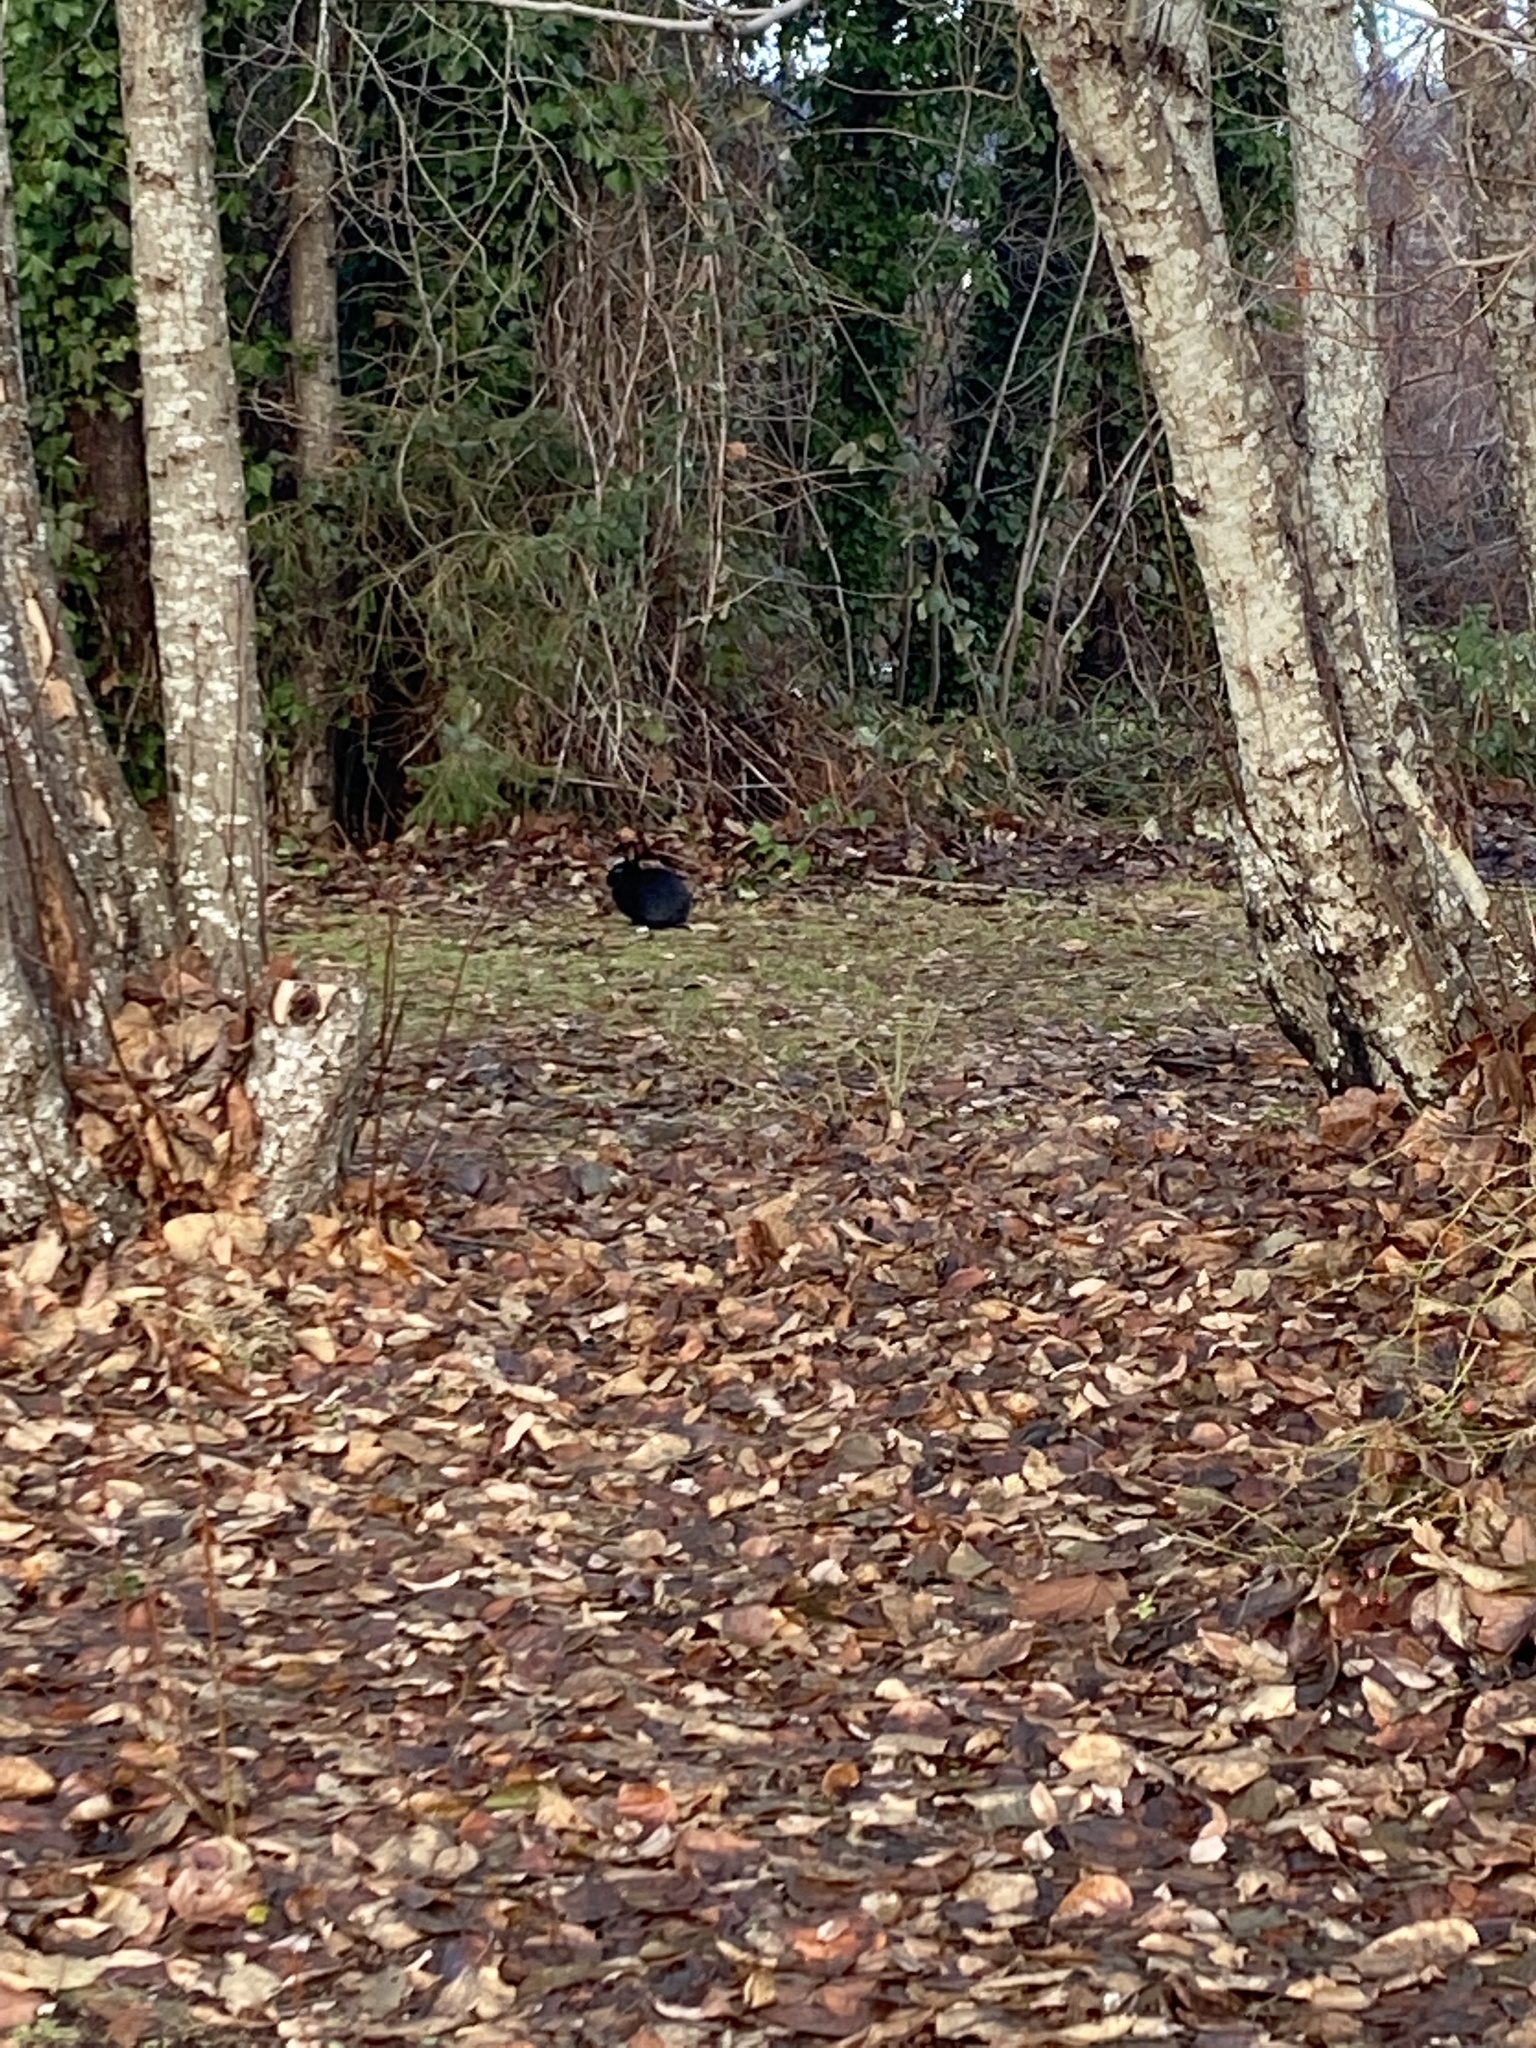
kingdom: Animalia
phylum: Chordata
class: Mammalia
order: Lagomorpha
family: Leporidae
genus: Oryctolagus
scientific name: Oryctolagus cuniculus
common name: European rabbit
